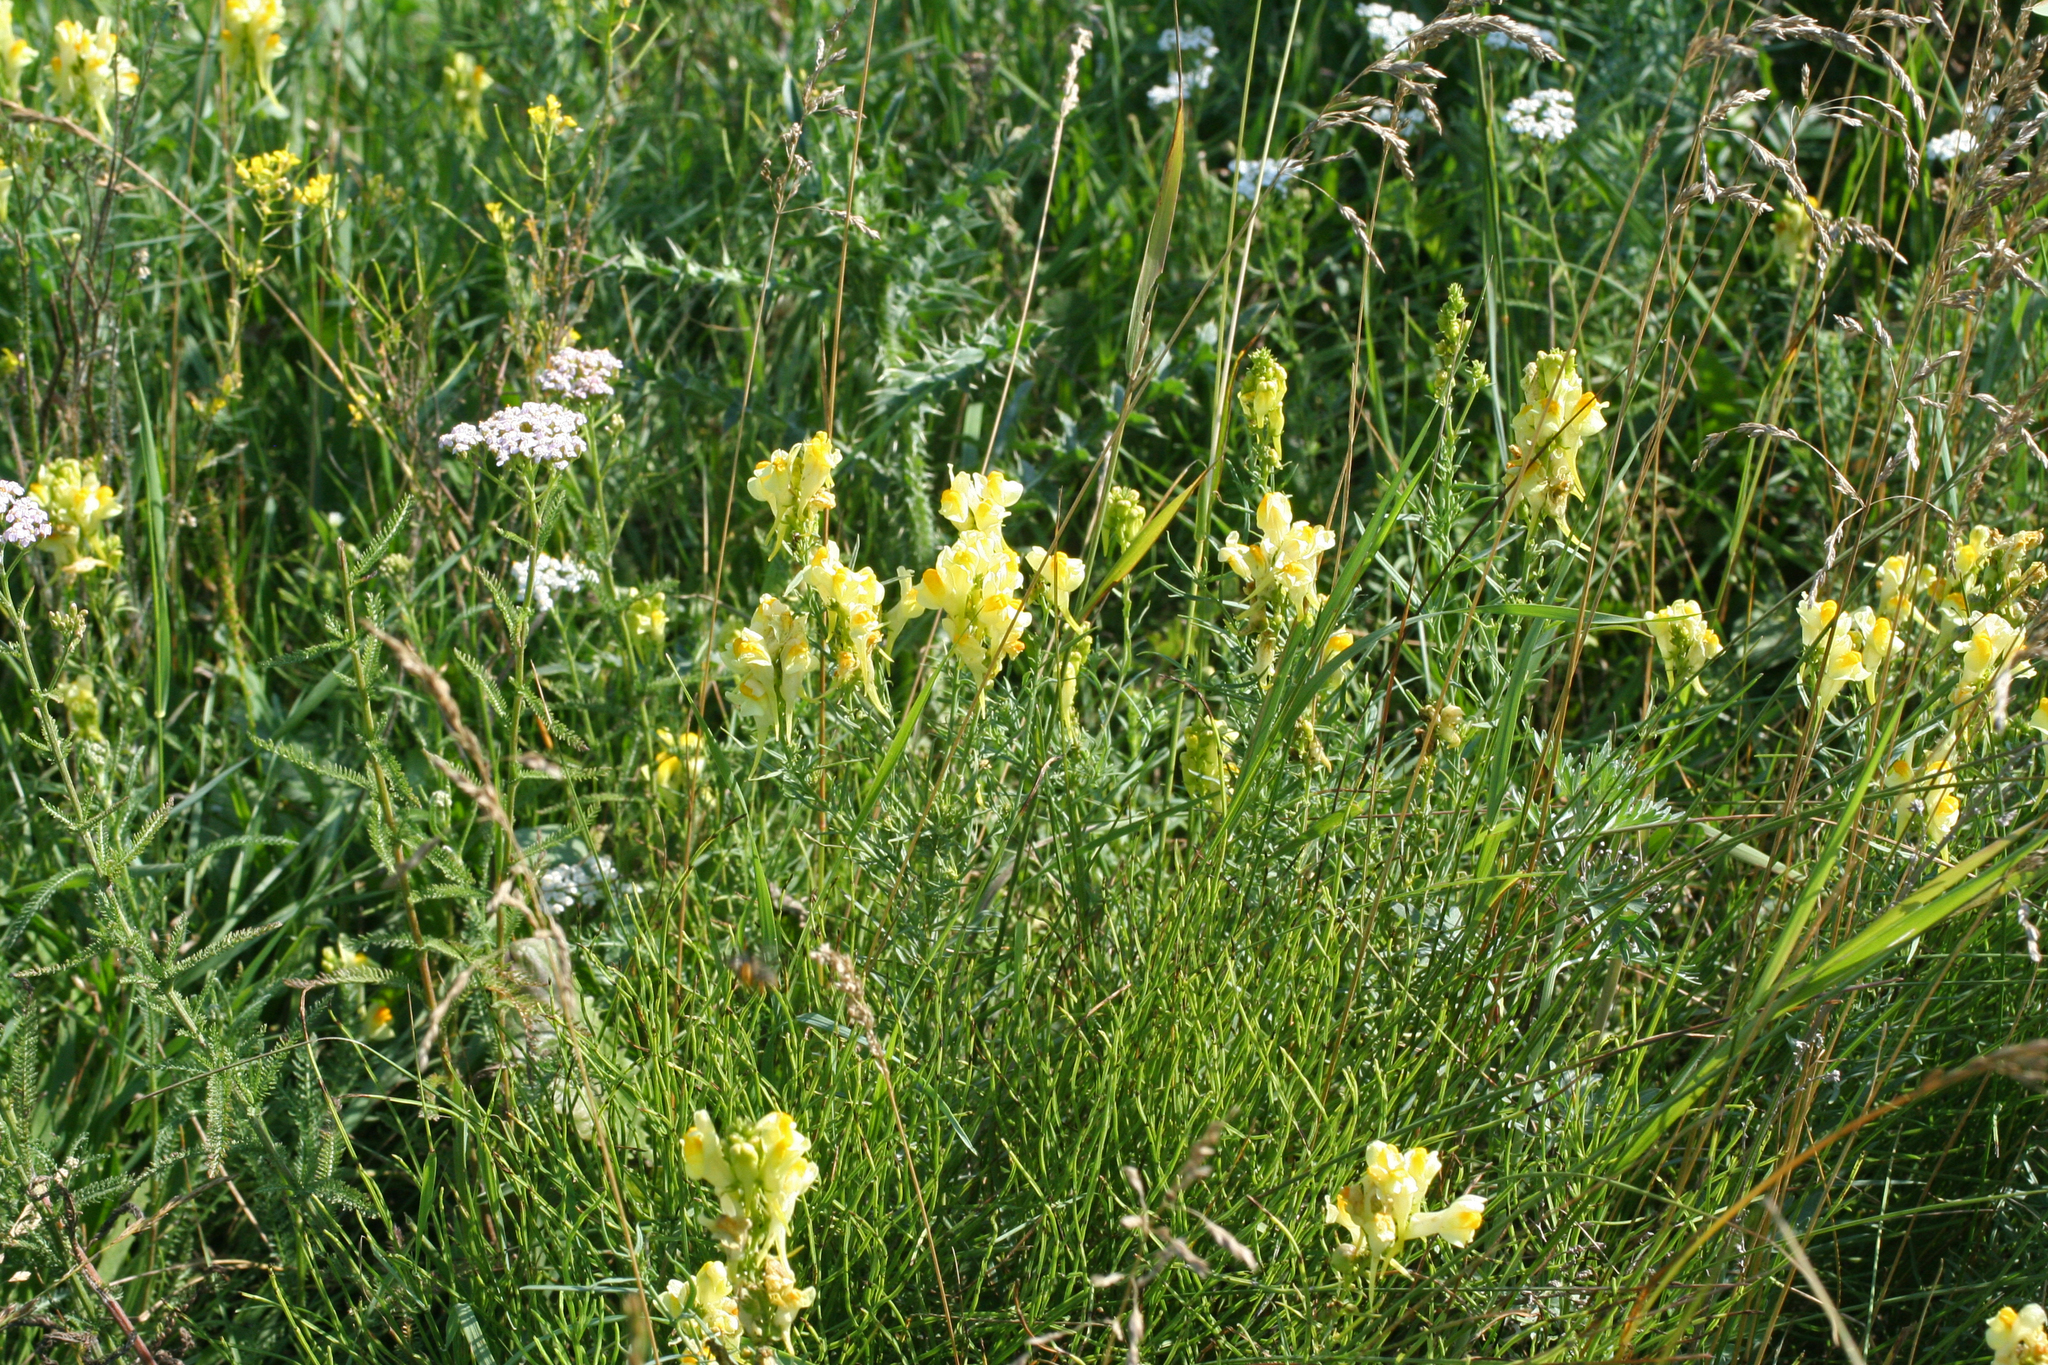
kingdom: Plantae
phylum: Tracheophyta
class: Magnoliopsida
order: Lamiales
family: Plantaginaceae
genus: Linaria
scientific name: Linaria vulgaris
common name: Butter and eggs
